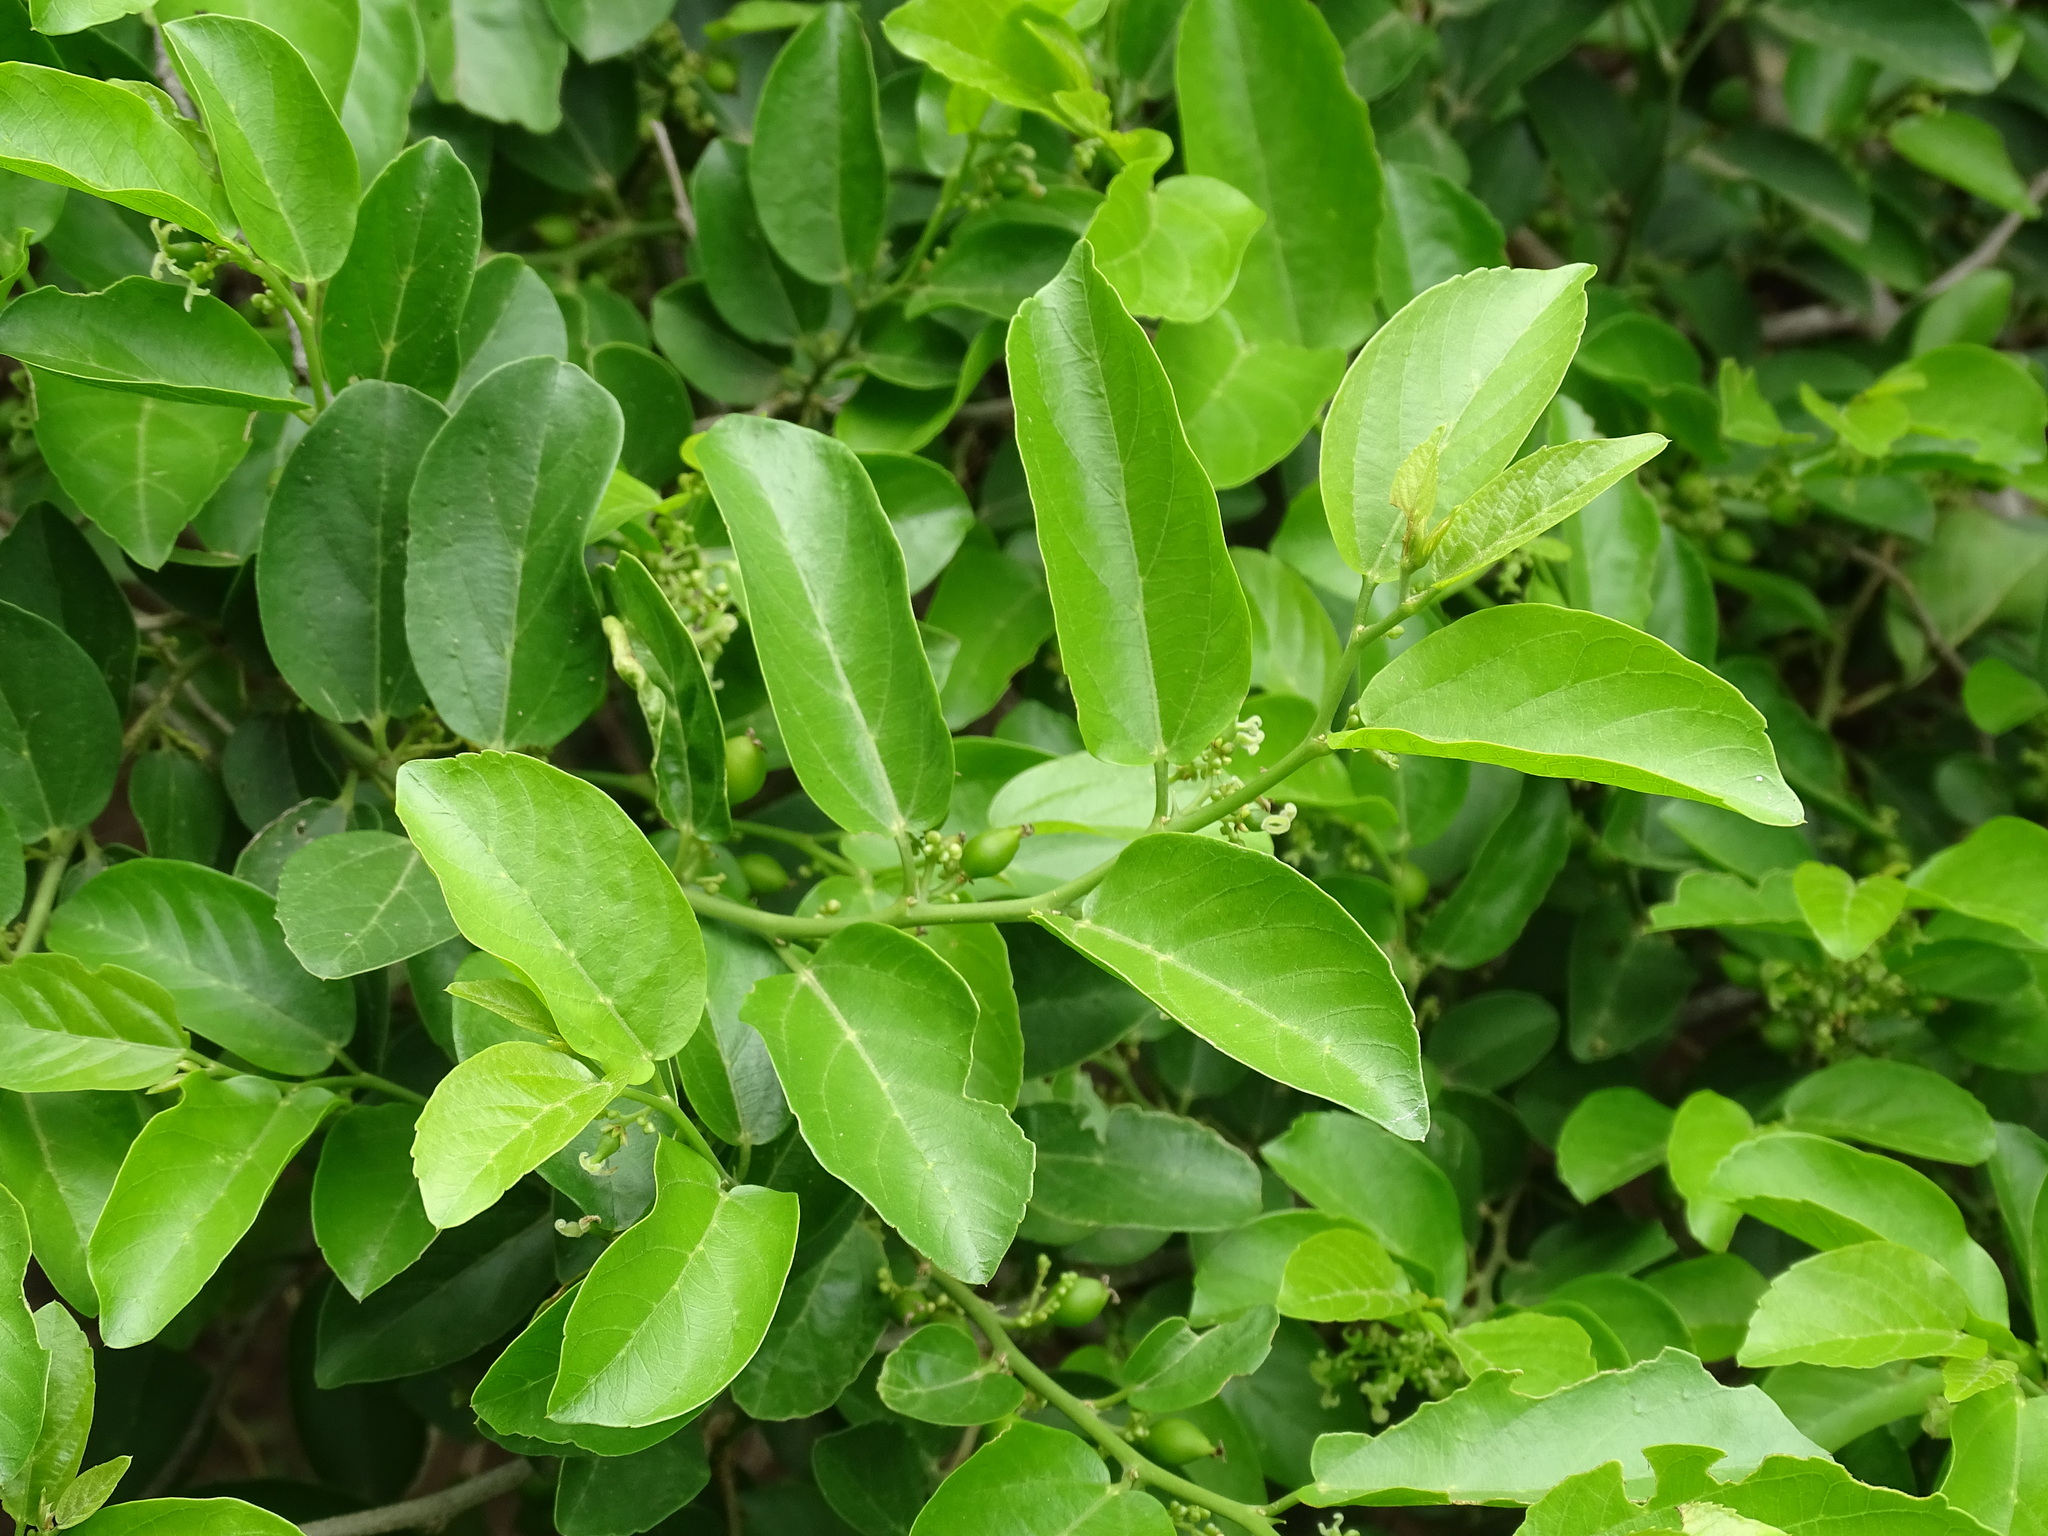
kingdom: Plantae
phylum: Tracheophyta
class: Magnoliopsida
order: Rosales
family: Cannabaceae
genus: Celtis
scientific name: Celtis iguanaea
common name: Iguana hackberry
